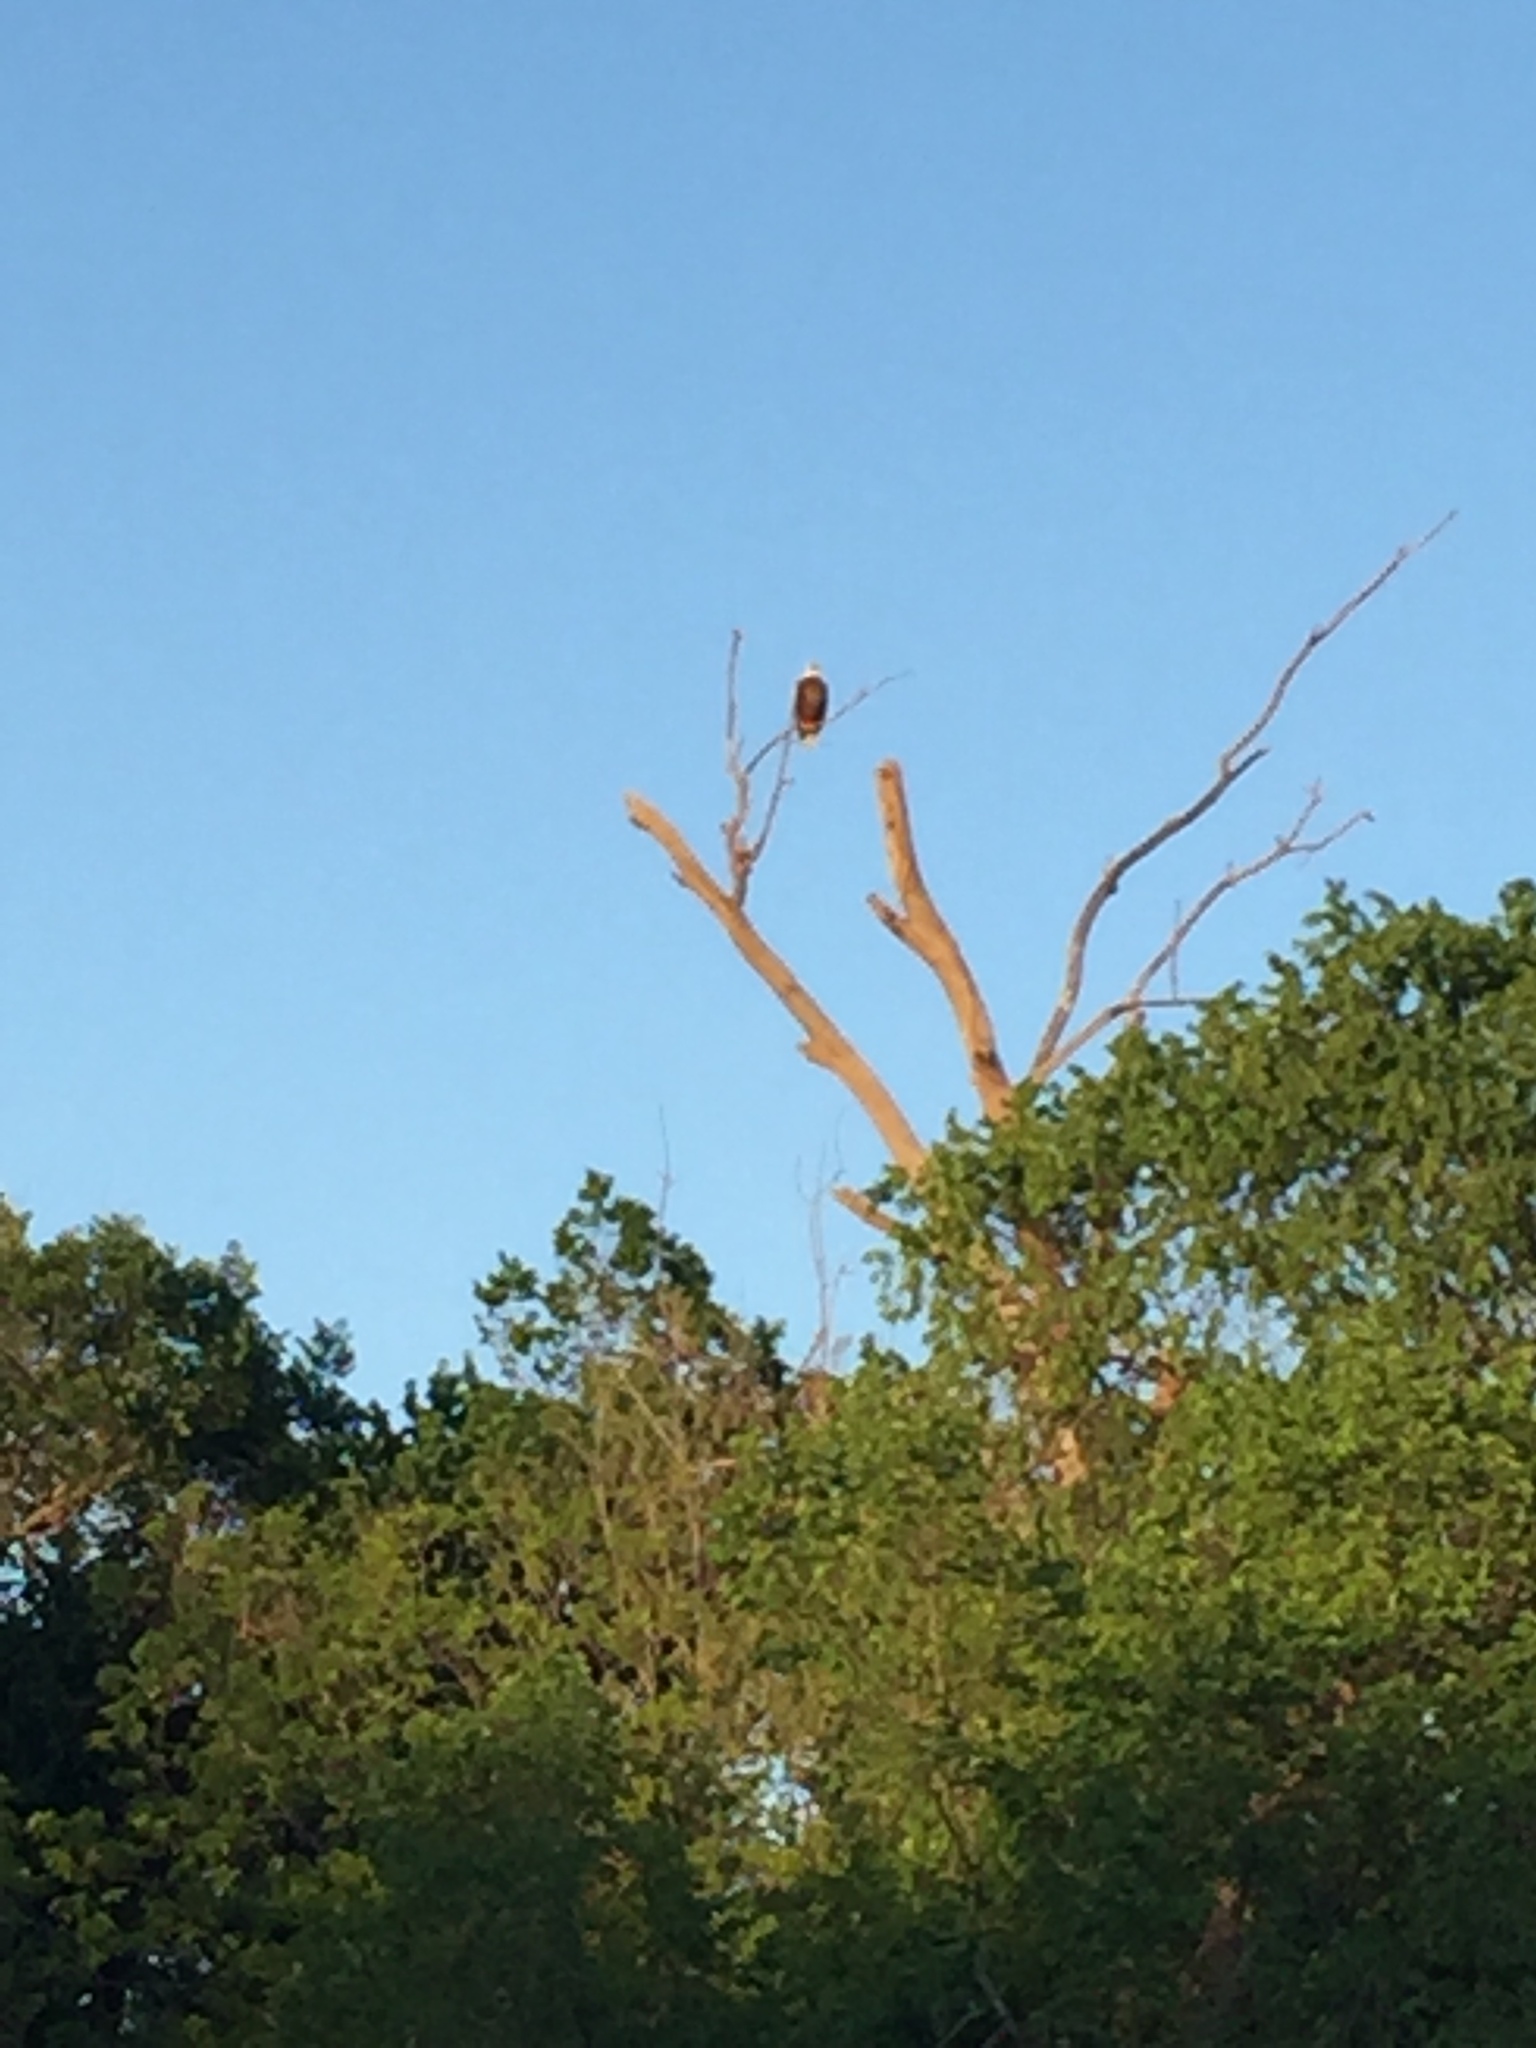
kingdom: Animalia
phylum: Chordata
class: Aves
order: Accipitriformes
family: Accipitridae
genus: Haliaeetus
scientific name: Haliaeetus leucocephalus
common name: Bald eagle
